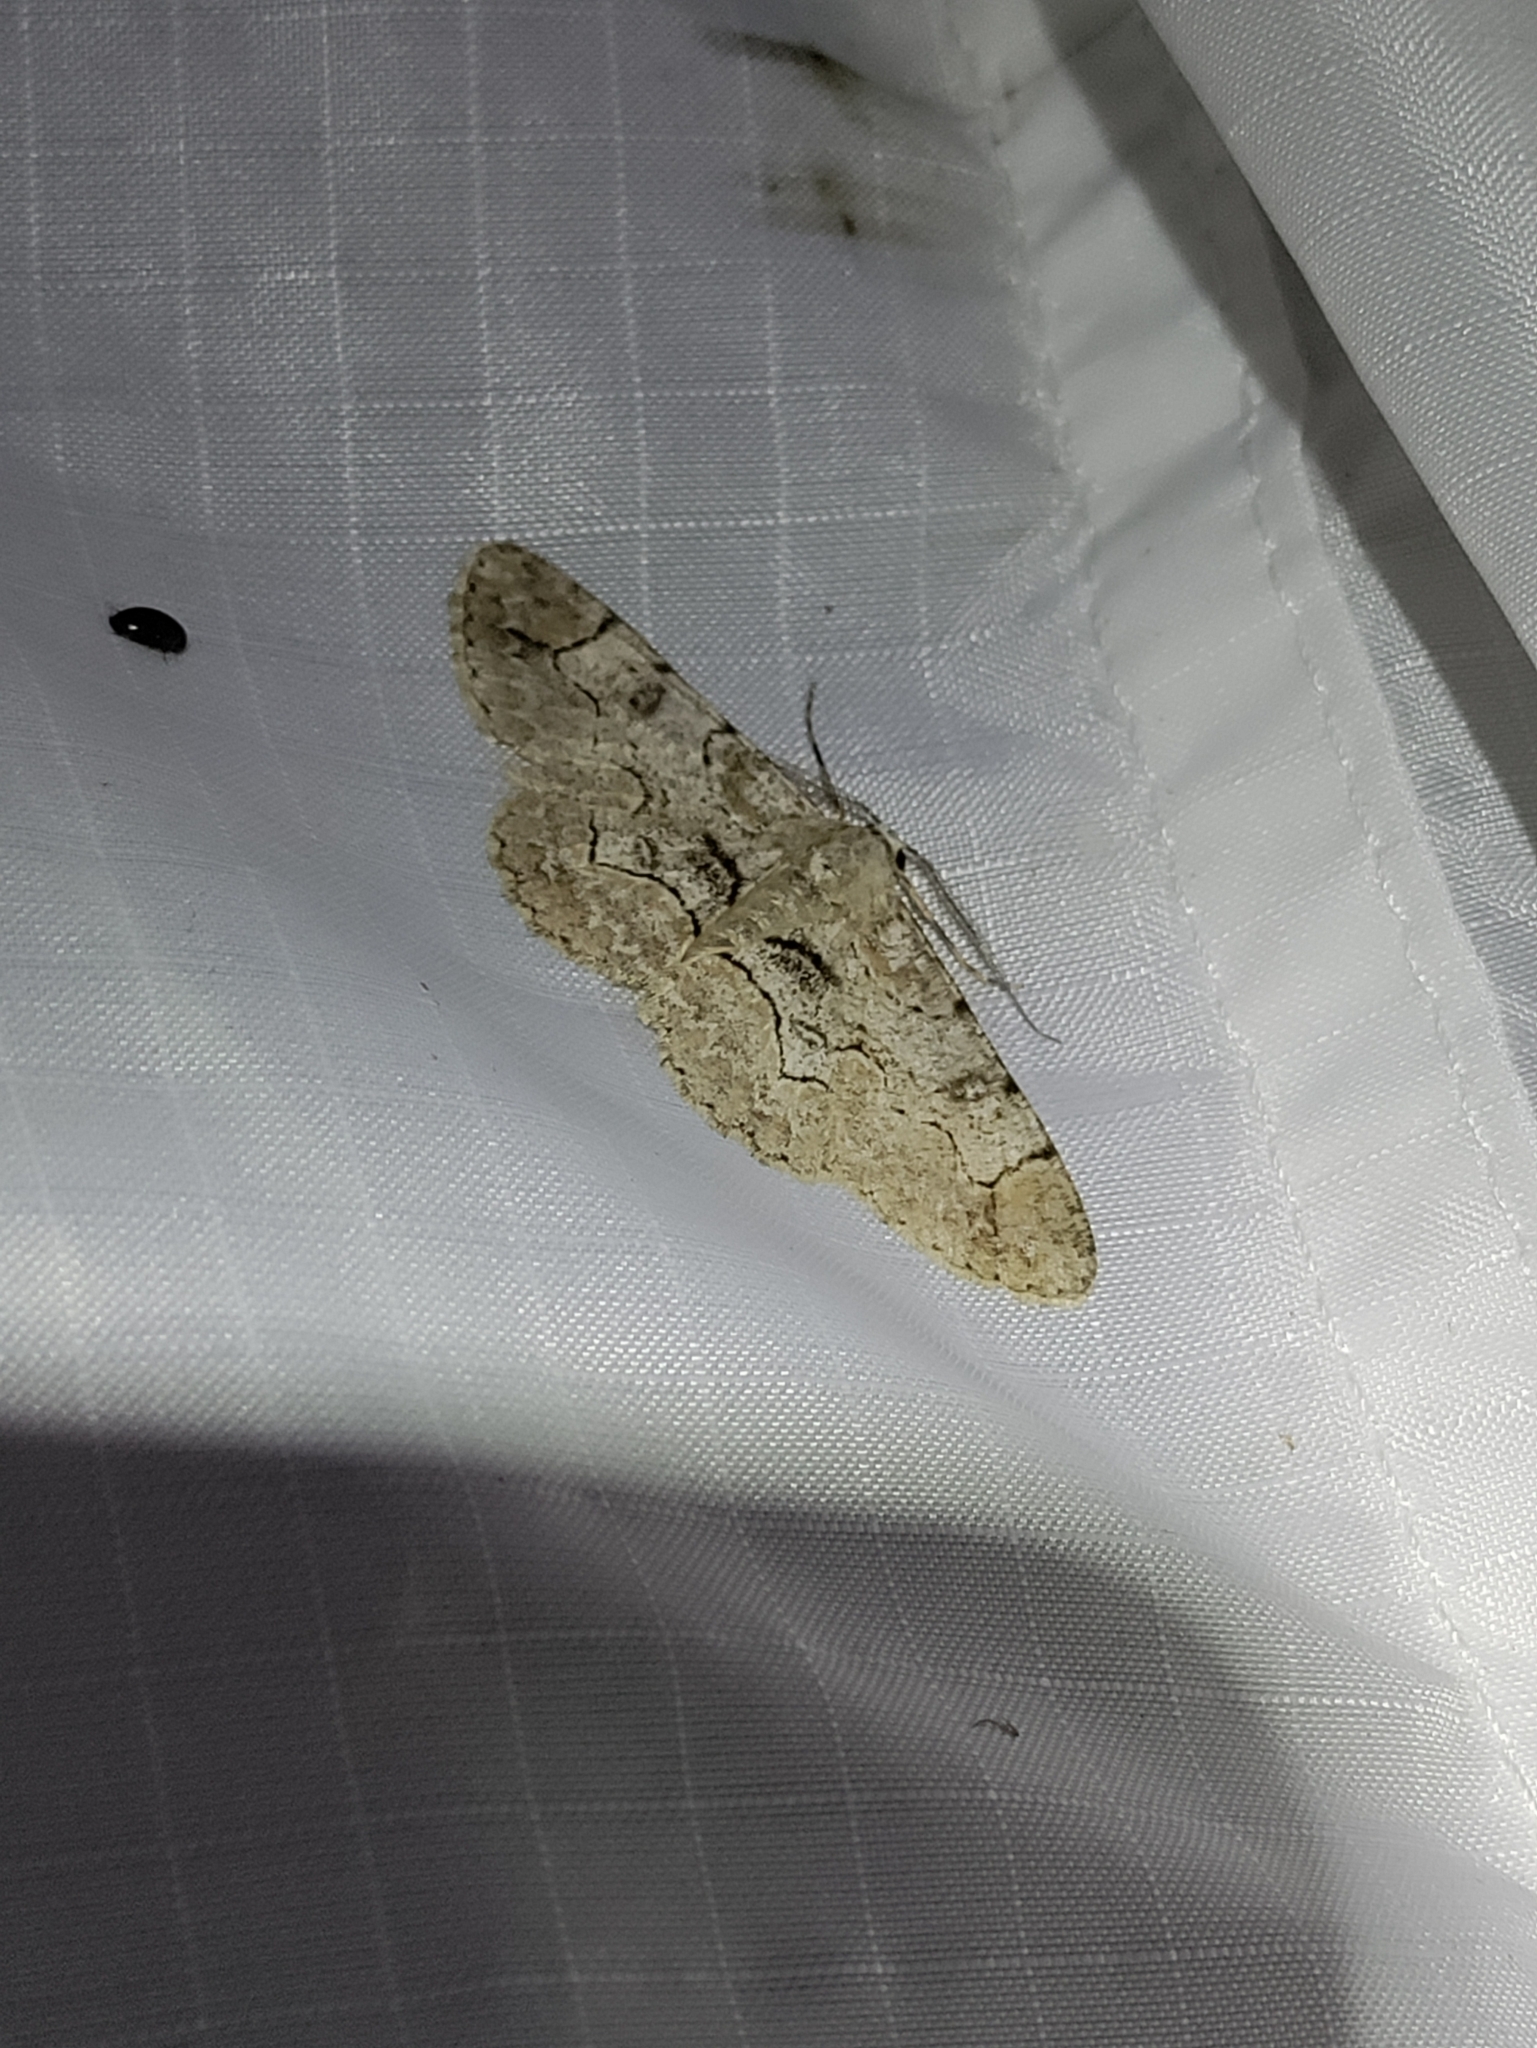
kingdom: Animalia
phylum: Arthropoda
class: Insecta
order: Lepidoptera
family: Geometridae
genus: Iridopsis
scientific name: Iridopsis larvaria
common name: Bent-line gray
